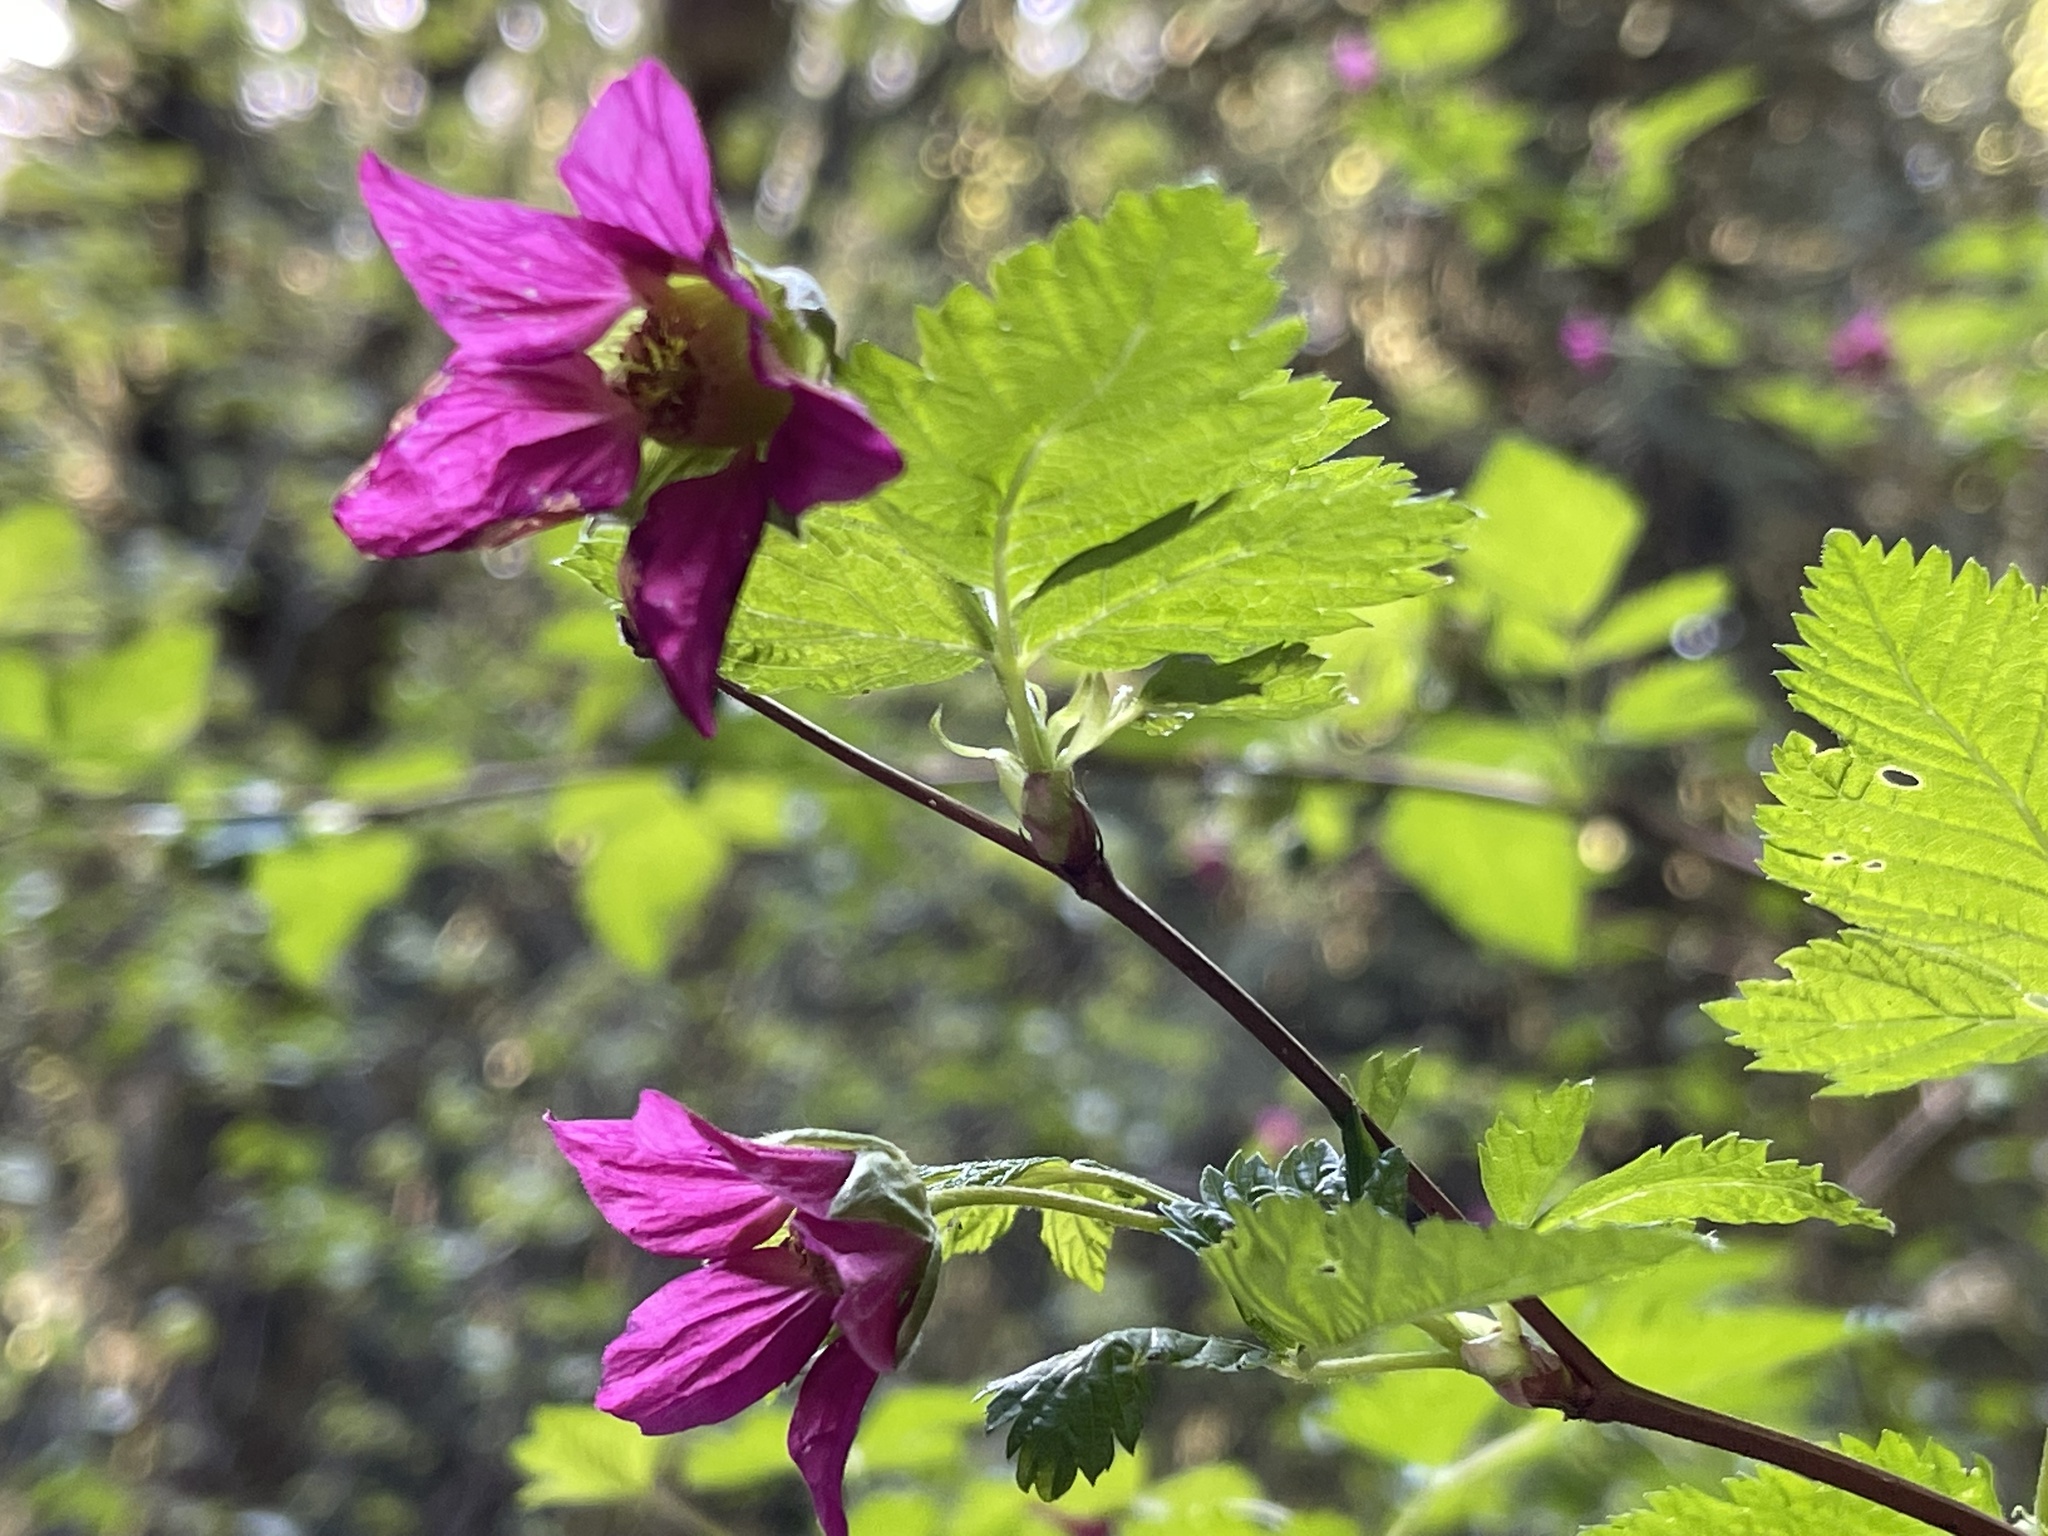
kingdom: Plantae
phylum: Tracheophyta
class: Magnoliopsida
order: Rosales
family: Rosaceae
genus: Rubus
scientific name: Rubus spectabilis
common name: Salmonberry
